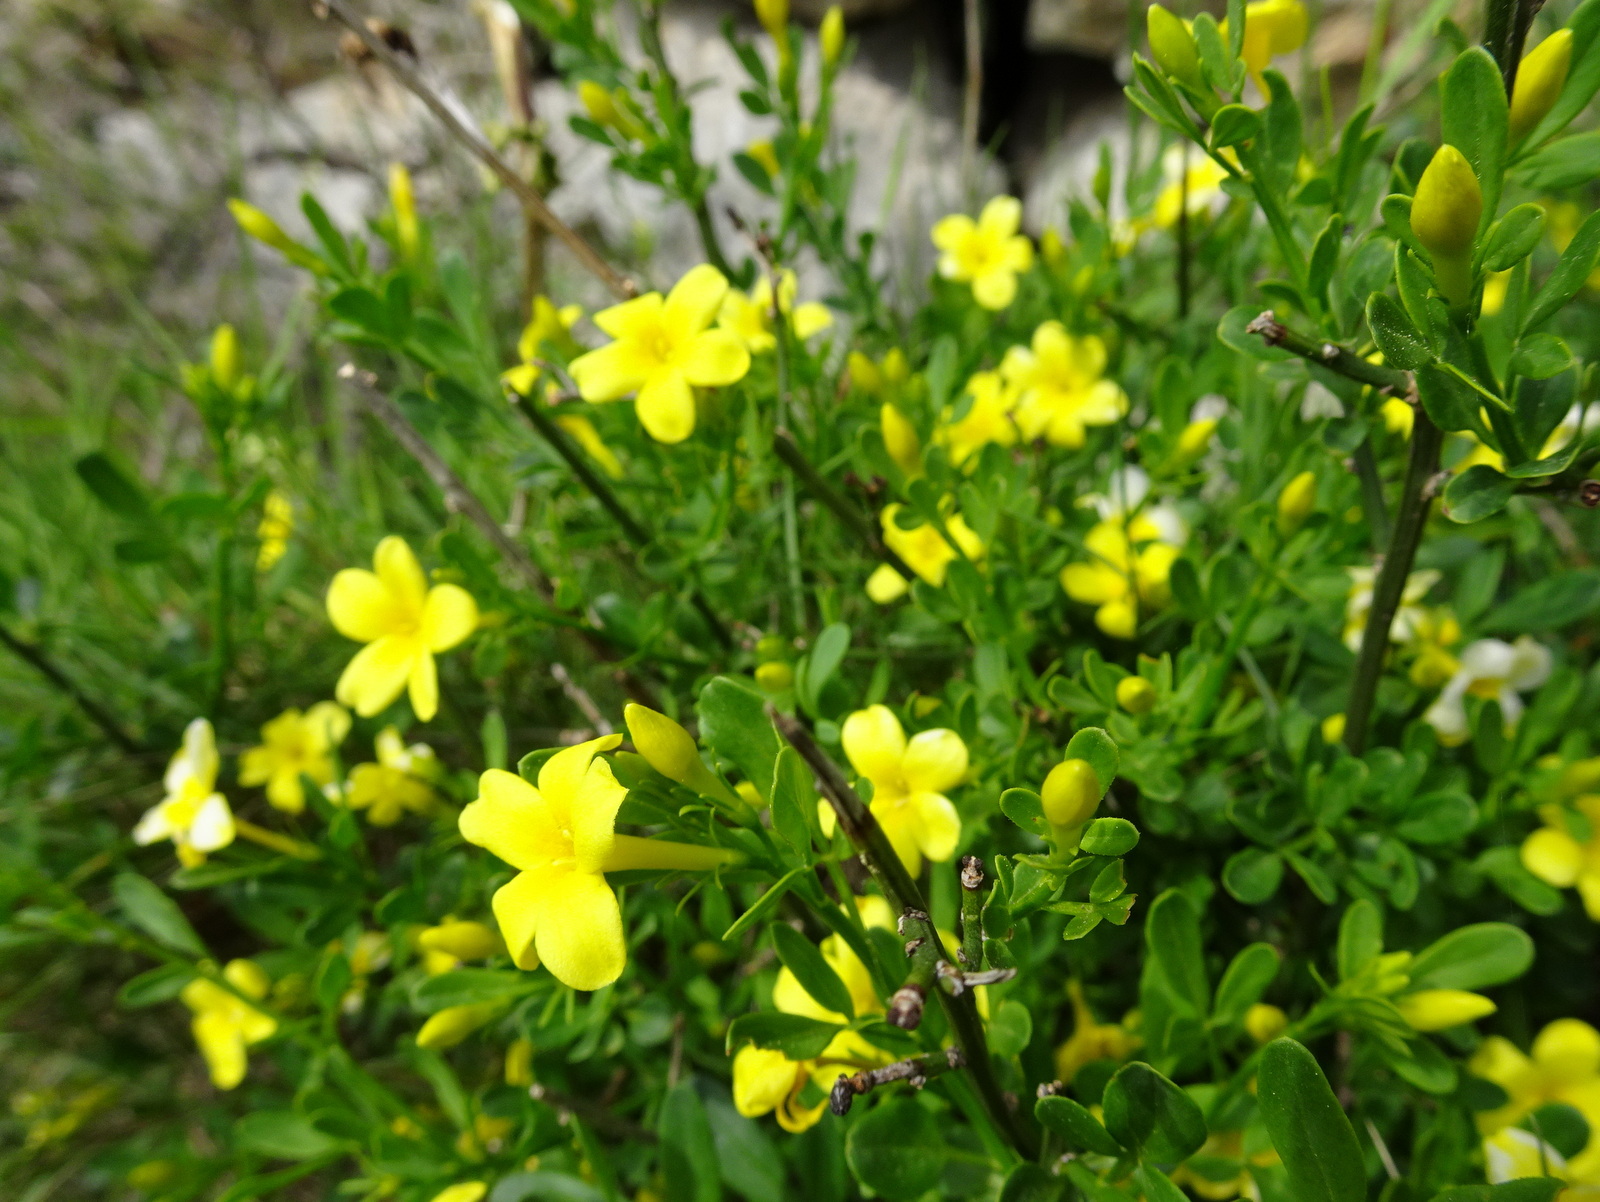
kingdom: Plantae
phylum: Tracheophyta
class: Magnoliopsida
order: Lamiales
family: Oleaceae
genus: Chrysojasminum
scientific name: Chrysojasminum fruticans
